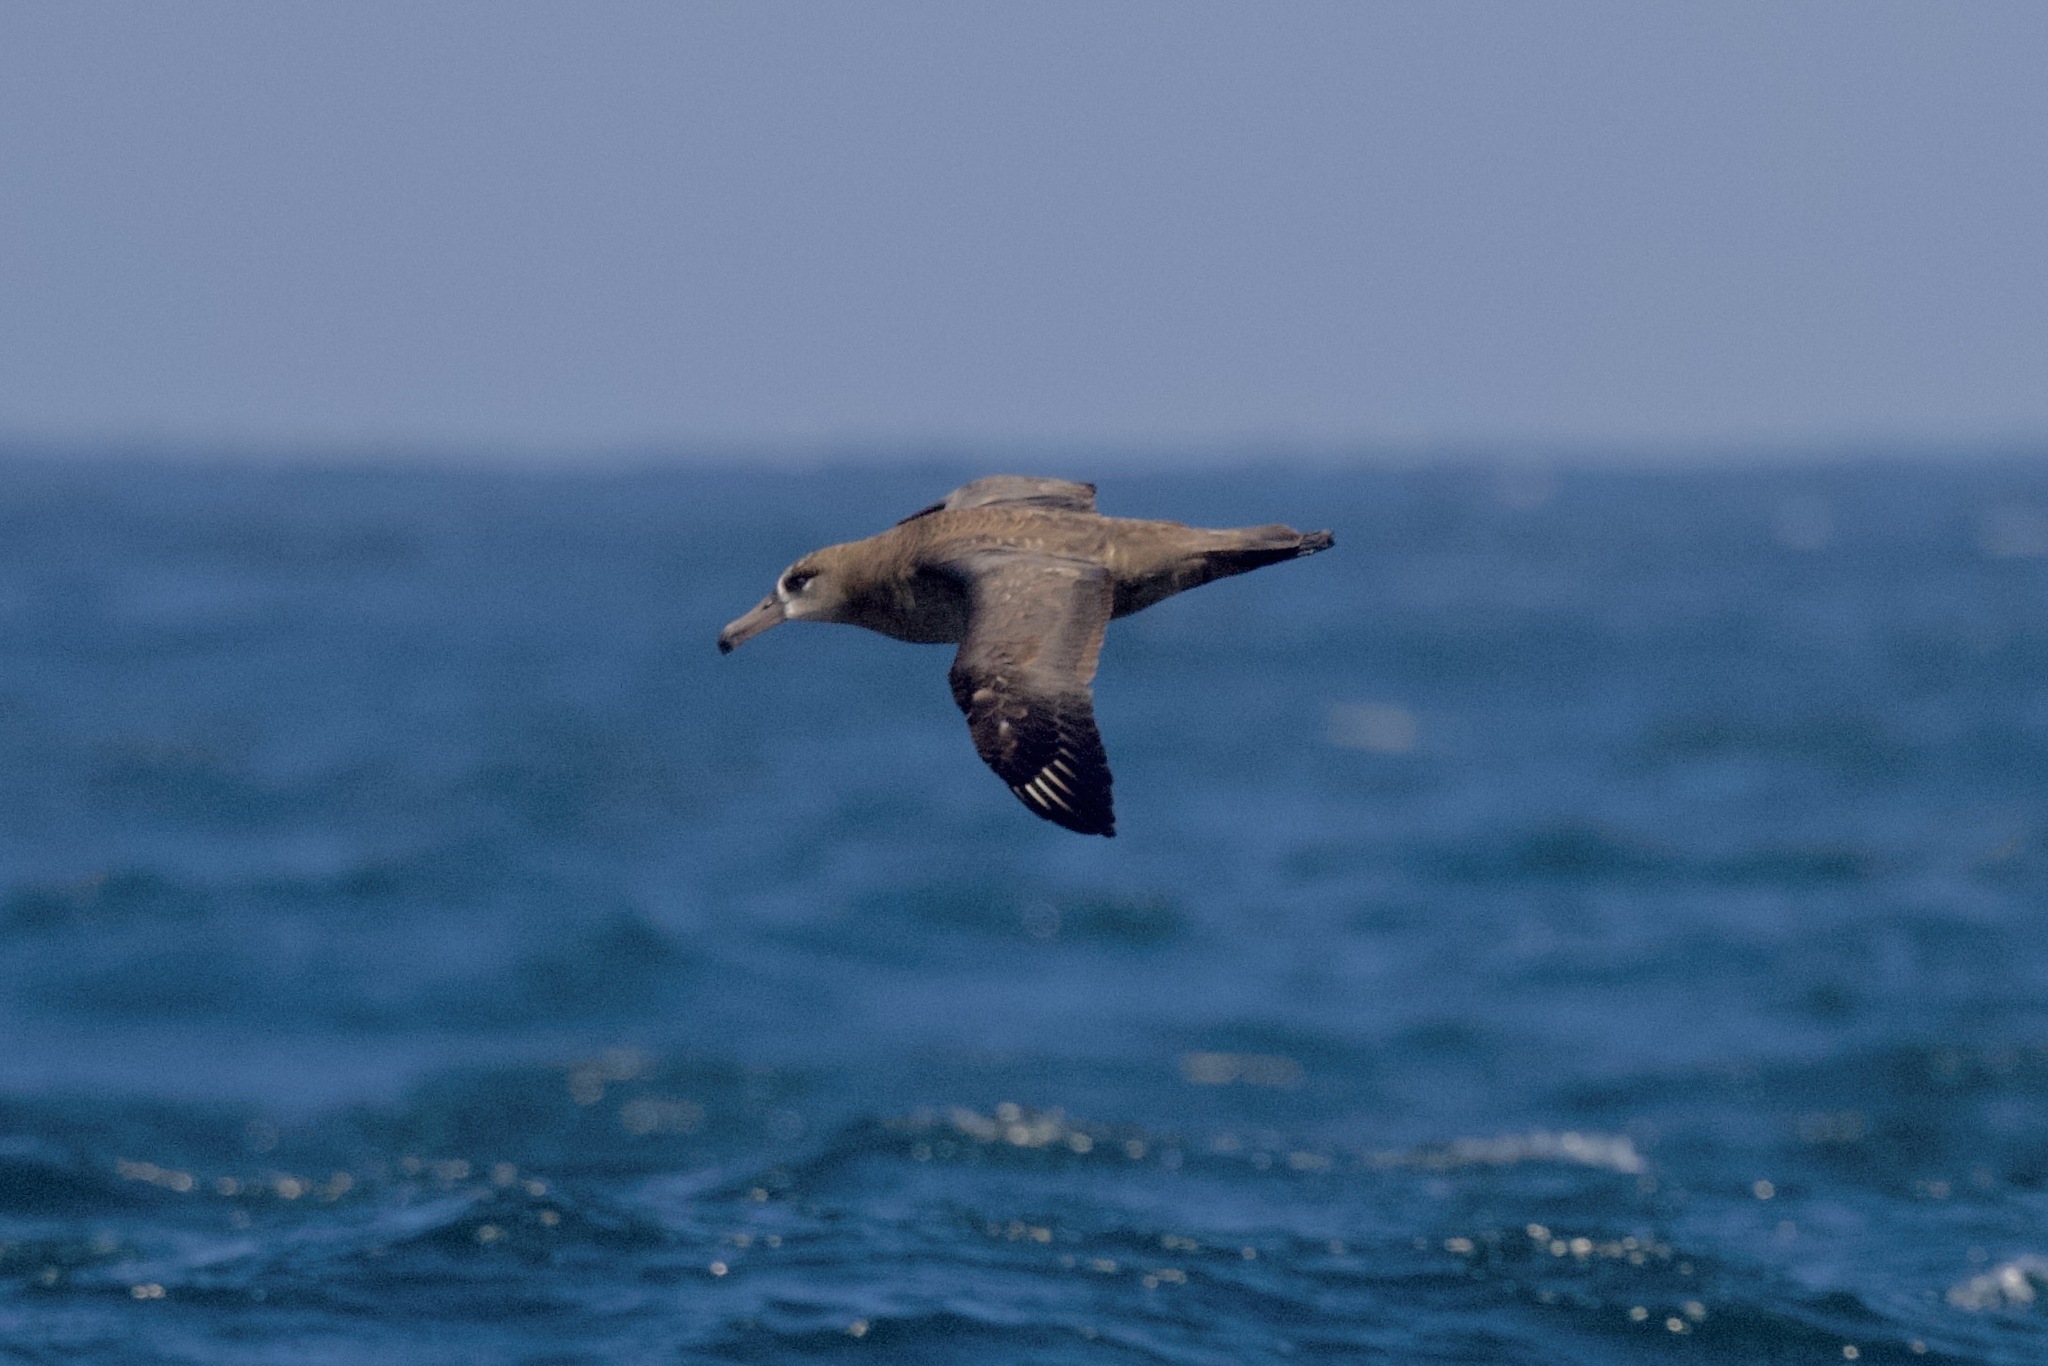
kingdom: Animalia
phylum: Chordata
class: Aves
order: Procellariiformes
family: Diomedeidae
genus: Phoebastria
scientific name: Phoebastria nigripes
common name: Black-footed albatross
